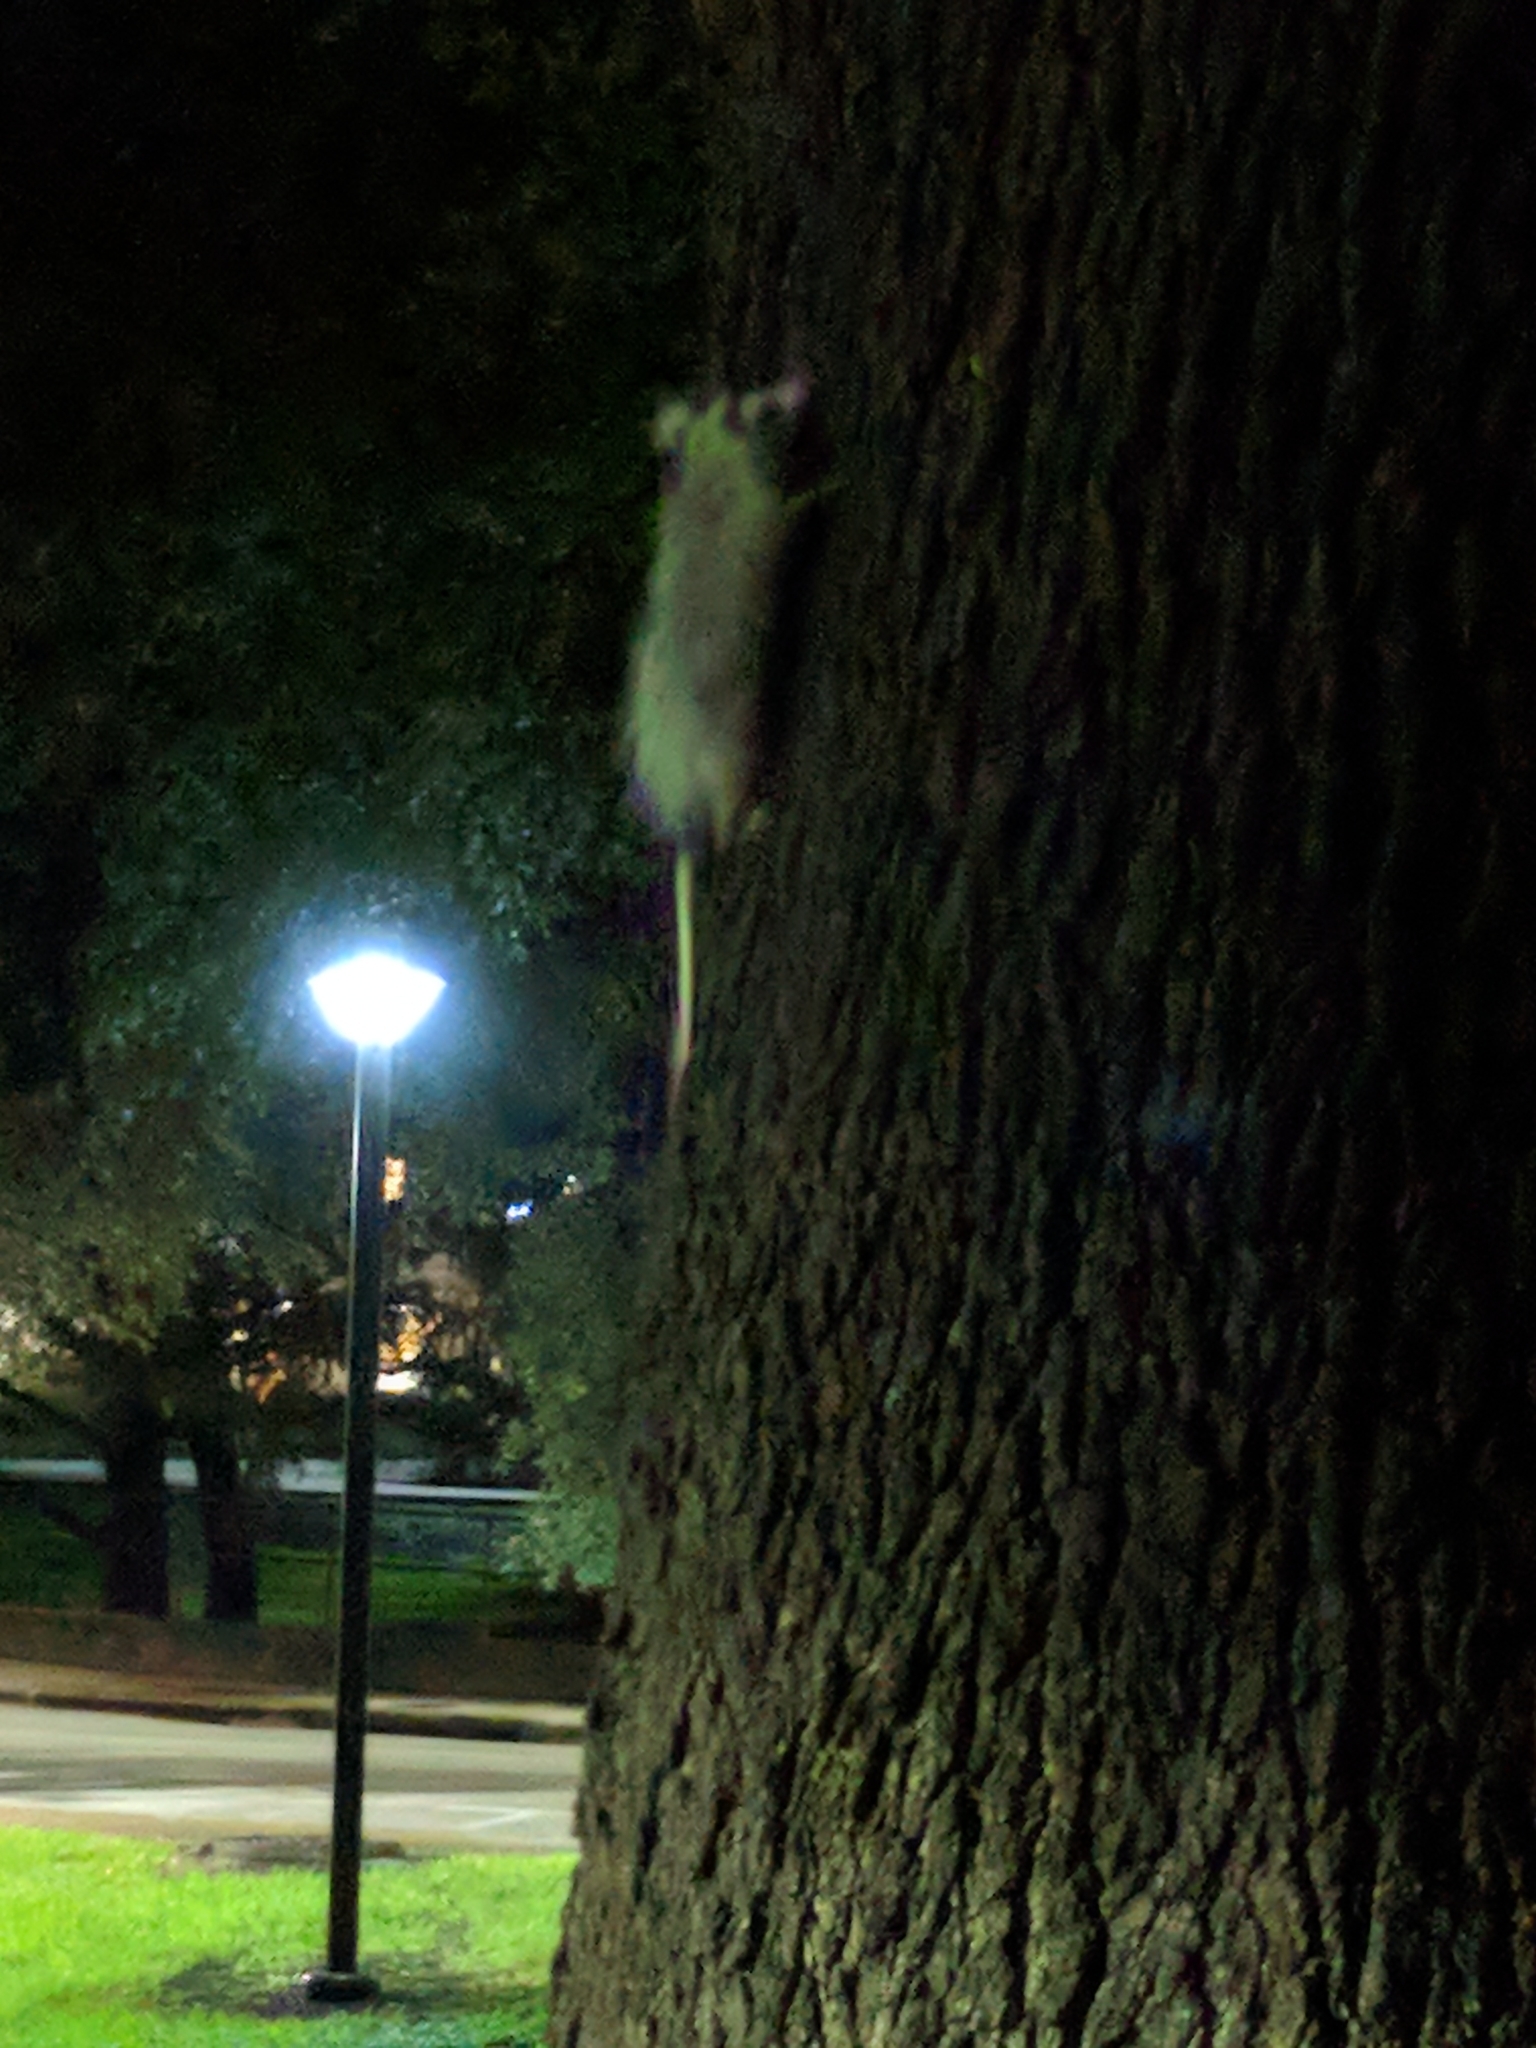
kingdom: Animalia
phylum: Chordata
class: Mammalia
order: Didelphimorphia
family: Didelphidae
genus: Didelphis
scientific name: Didelphis virginiana
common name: Virginia opossum
